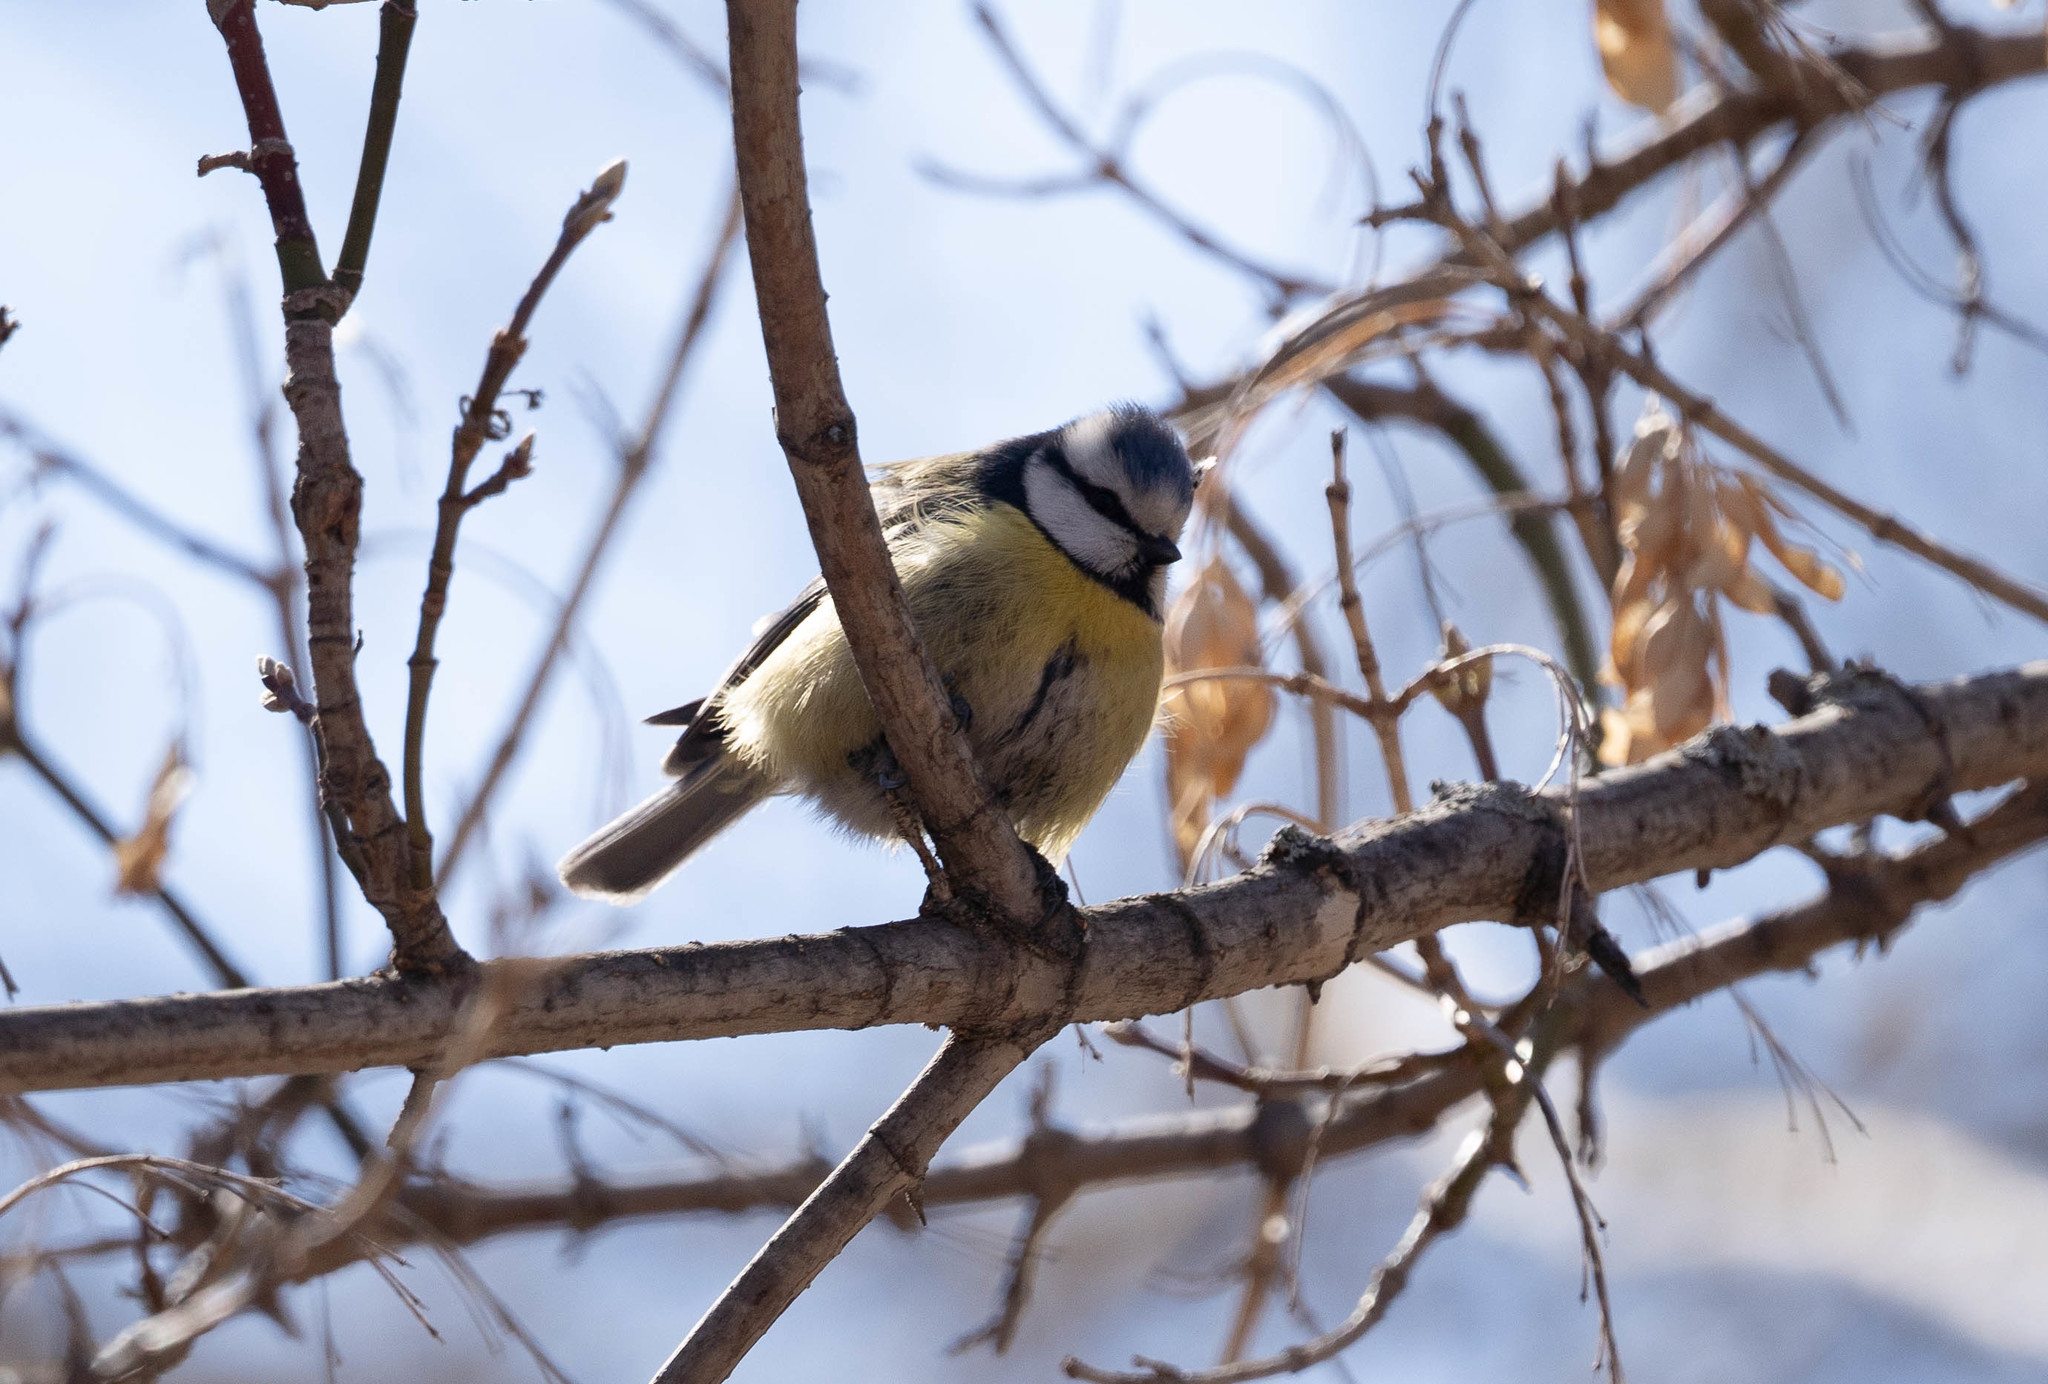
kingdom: Animalia
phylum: Chordata
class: Aves
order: Passeriformes
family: Paridae
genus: Cyanistes
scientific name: Cyanistes caeruleus
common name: Eurasian blue tit
